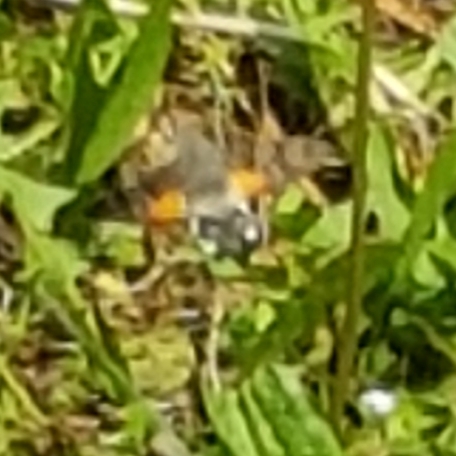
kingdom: Animalia
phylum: Arthropoda
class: Insecta
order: Lepidoptera
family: Sphingidae
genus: Macroglossum
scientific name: Macroglossum stellatarum
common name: Humming-bird hawk-moth
